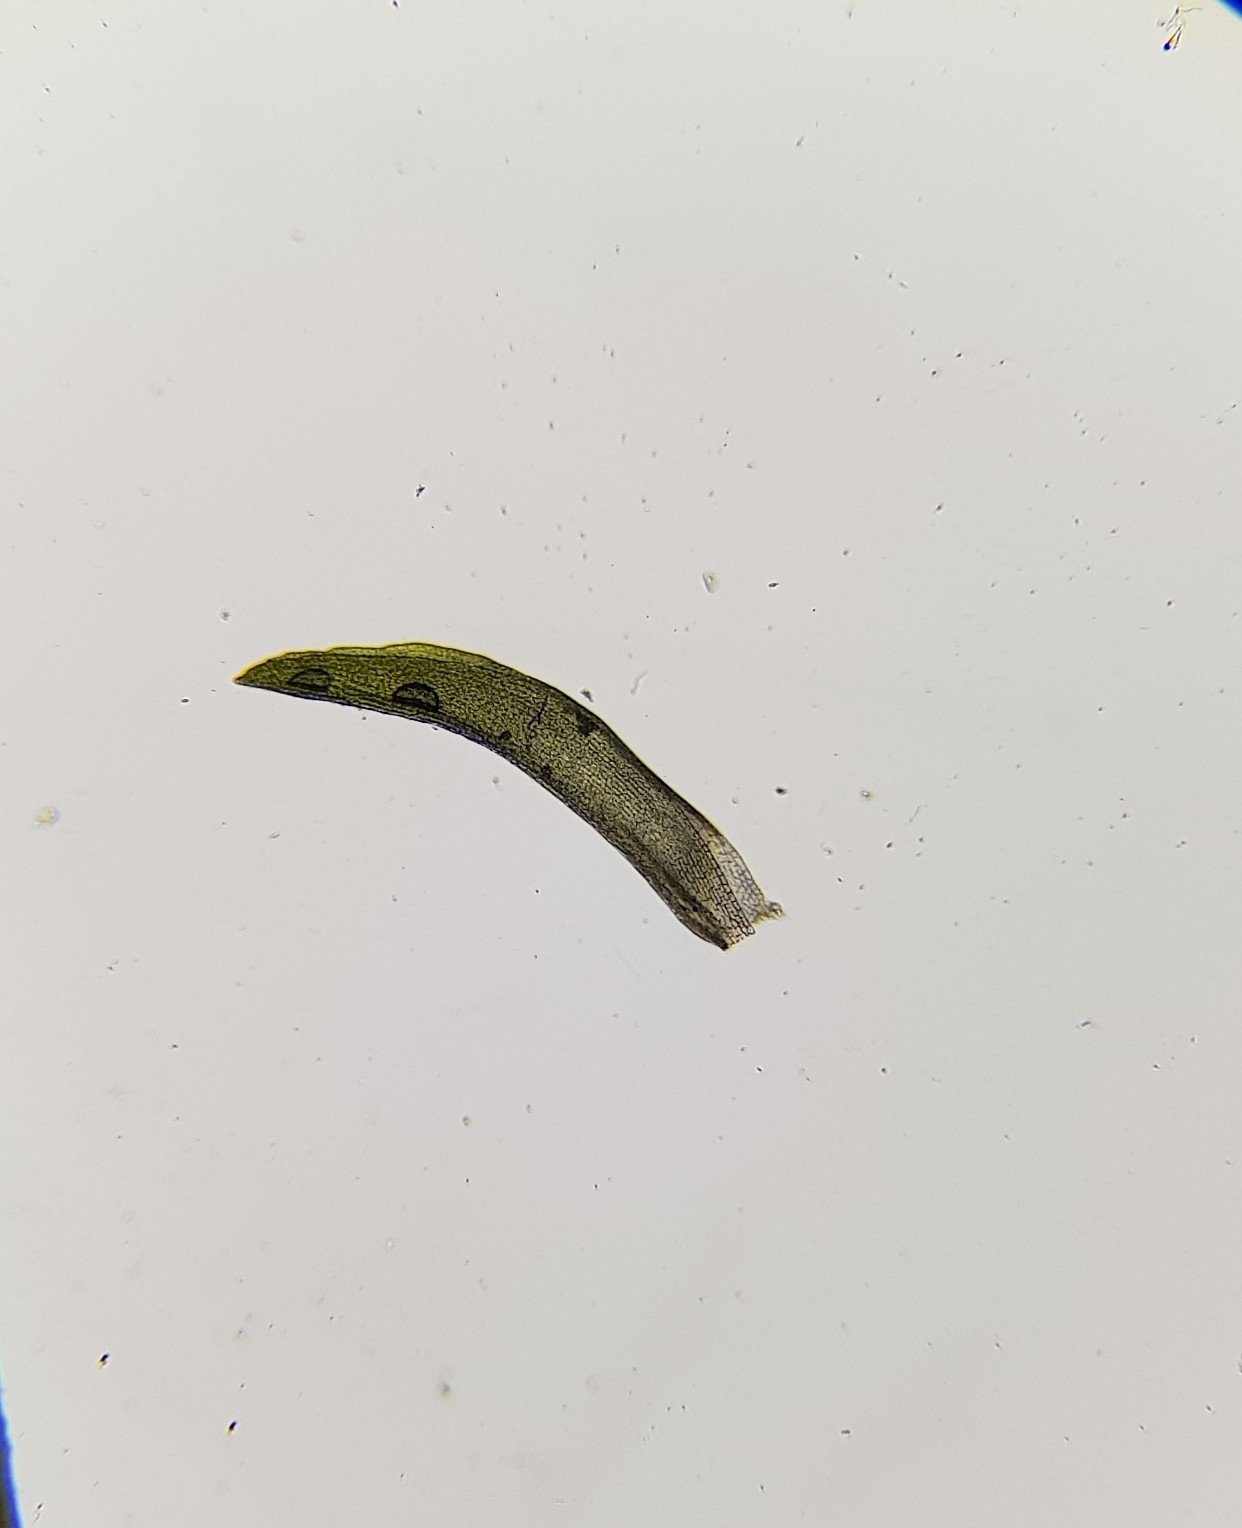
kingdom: Plantae
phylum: Bryophyta
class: Bryopsida
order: Grimmiales
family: Grimmiaceae
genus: Codriophorus
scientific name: Codriophorus acicularis
